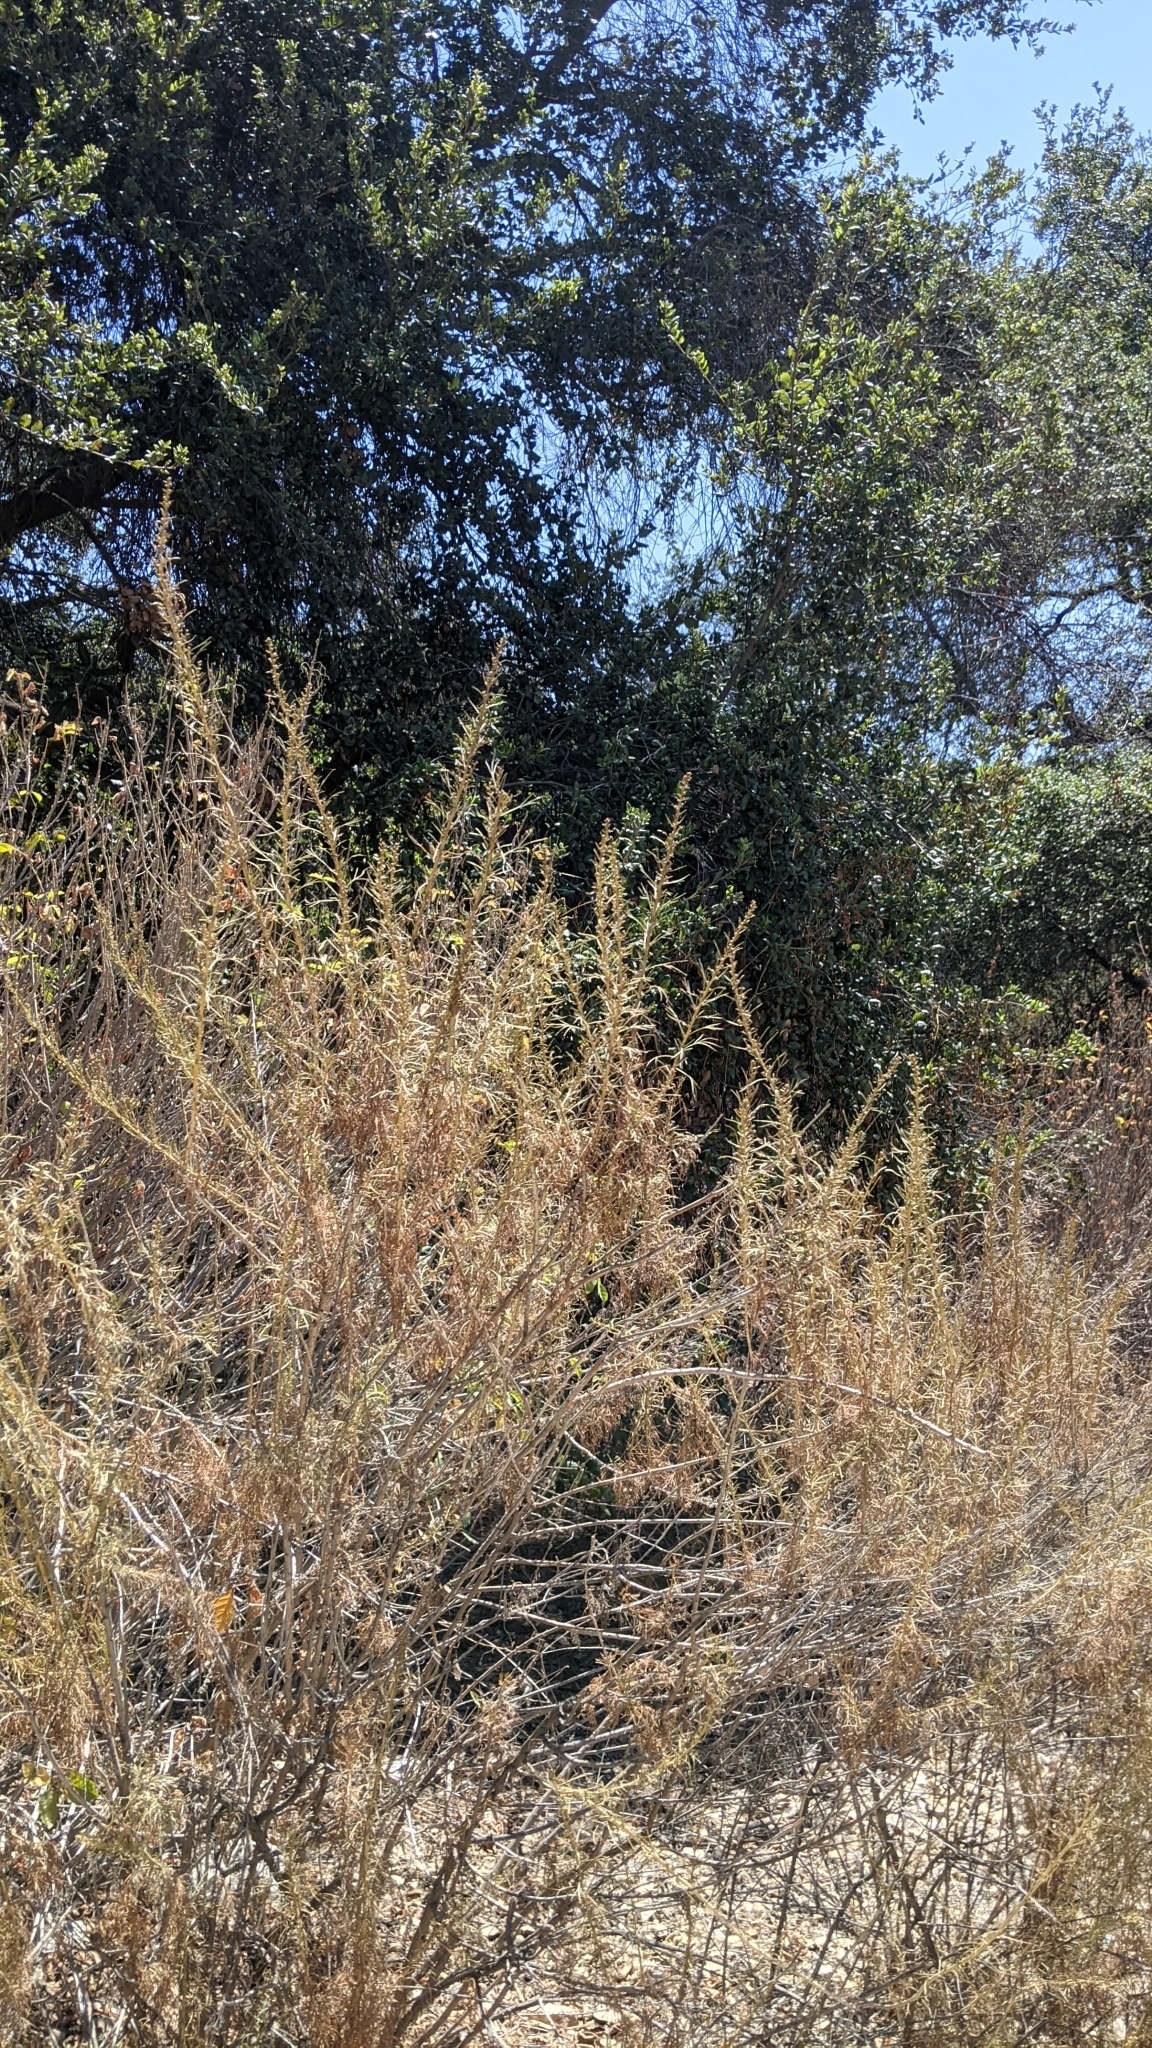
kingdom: Plantae
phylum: Tracheophyta
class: Magnoliopsida
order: Asterales
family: Asteraceae
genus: Artemisia
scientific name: Artemisia californica
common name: California sagebrush
